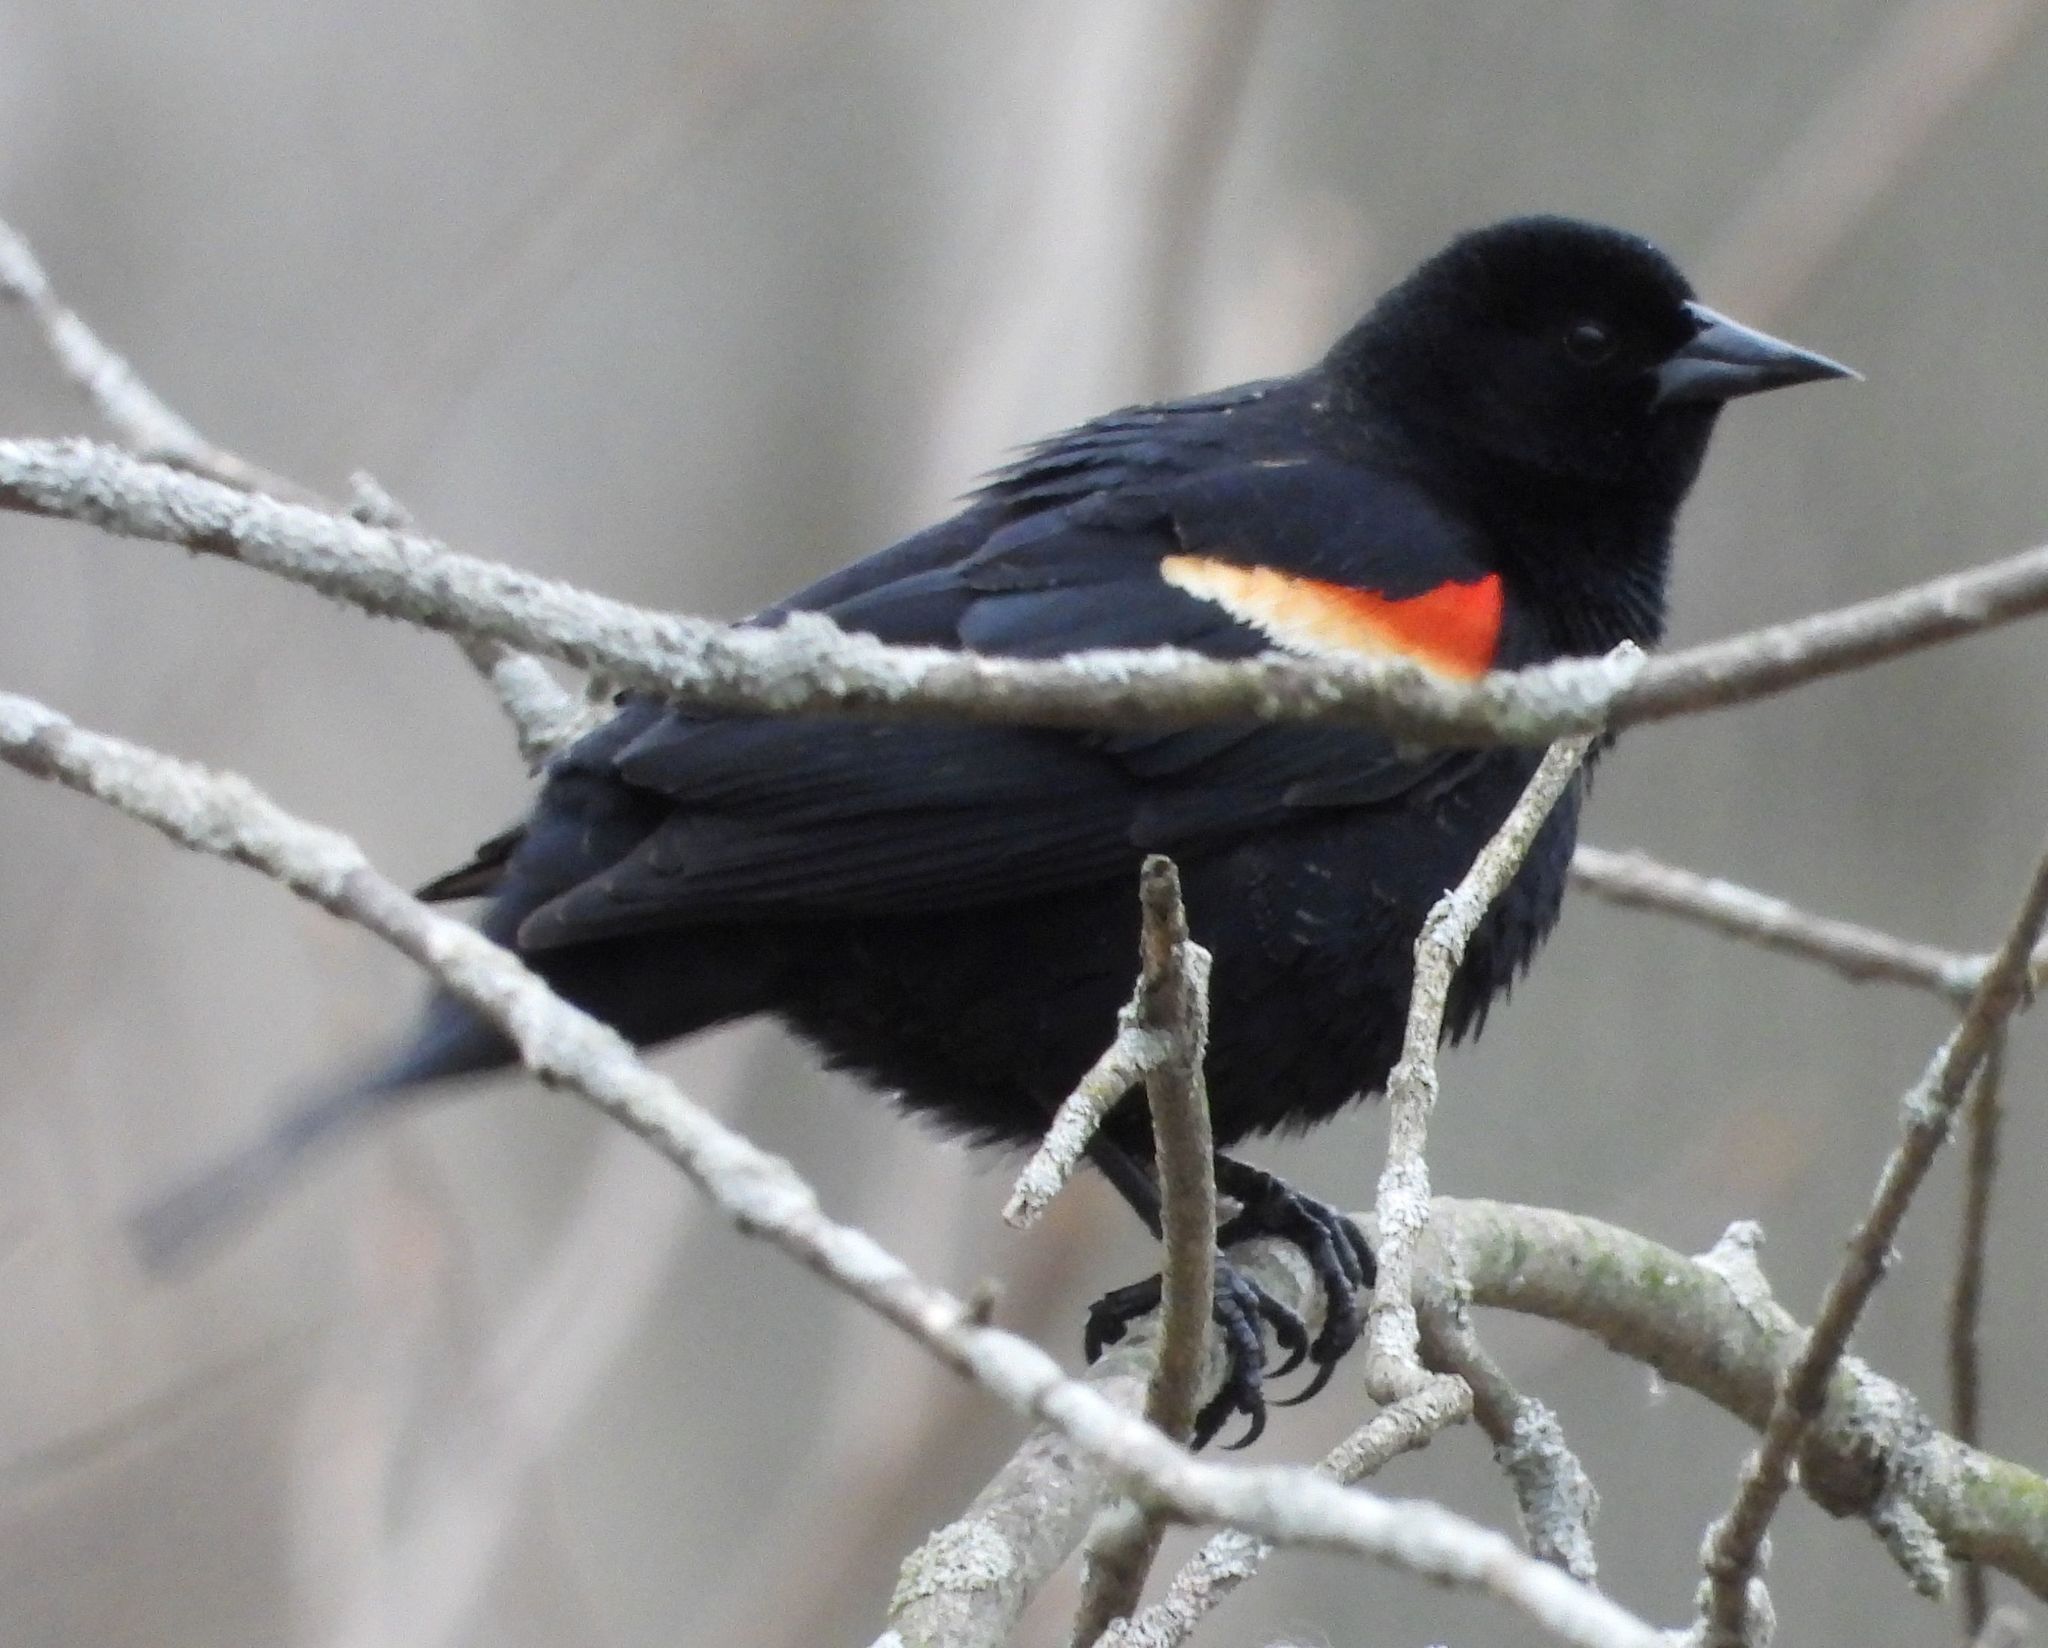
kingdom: Animalia
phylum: Chordata
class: Aves
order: Passeriformes
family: Icteridae
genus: Agelaius
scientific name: Agelaius phoeniceus
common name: Red-winged blackbird
